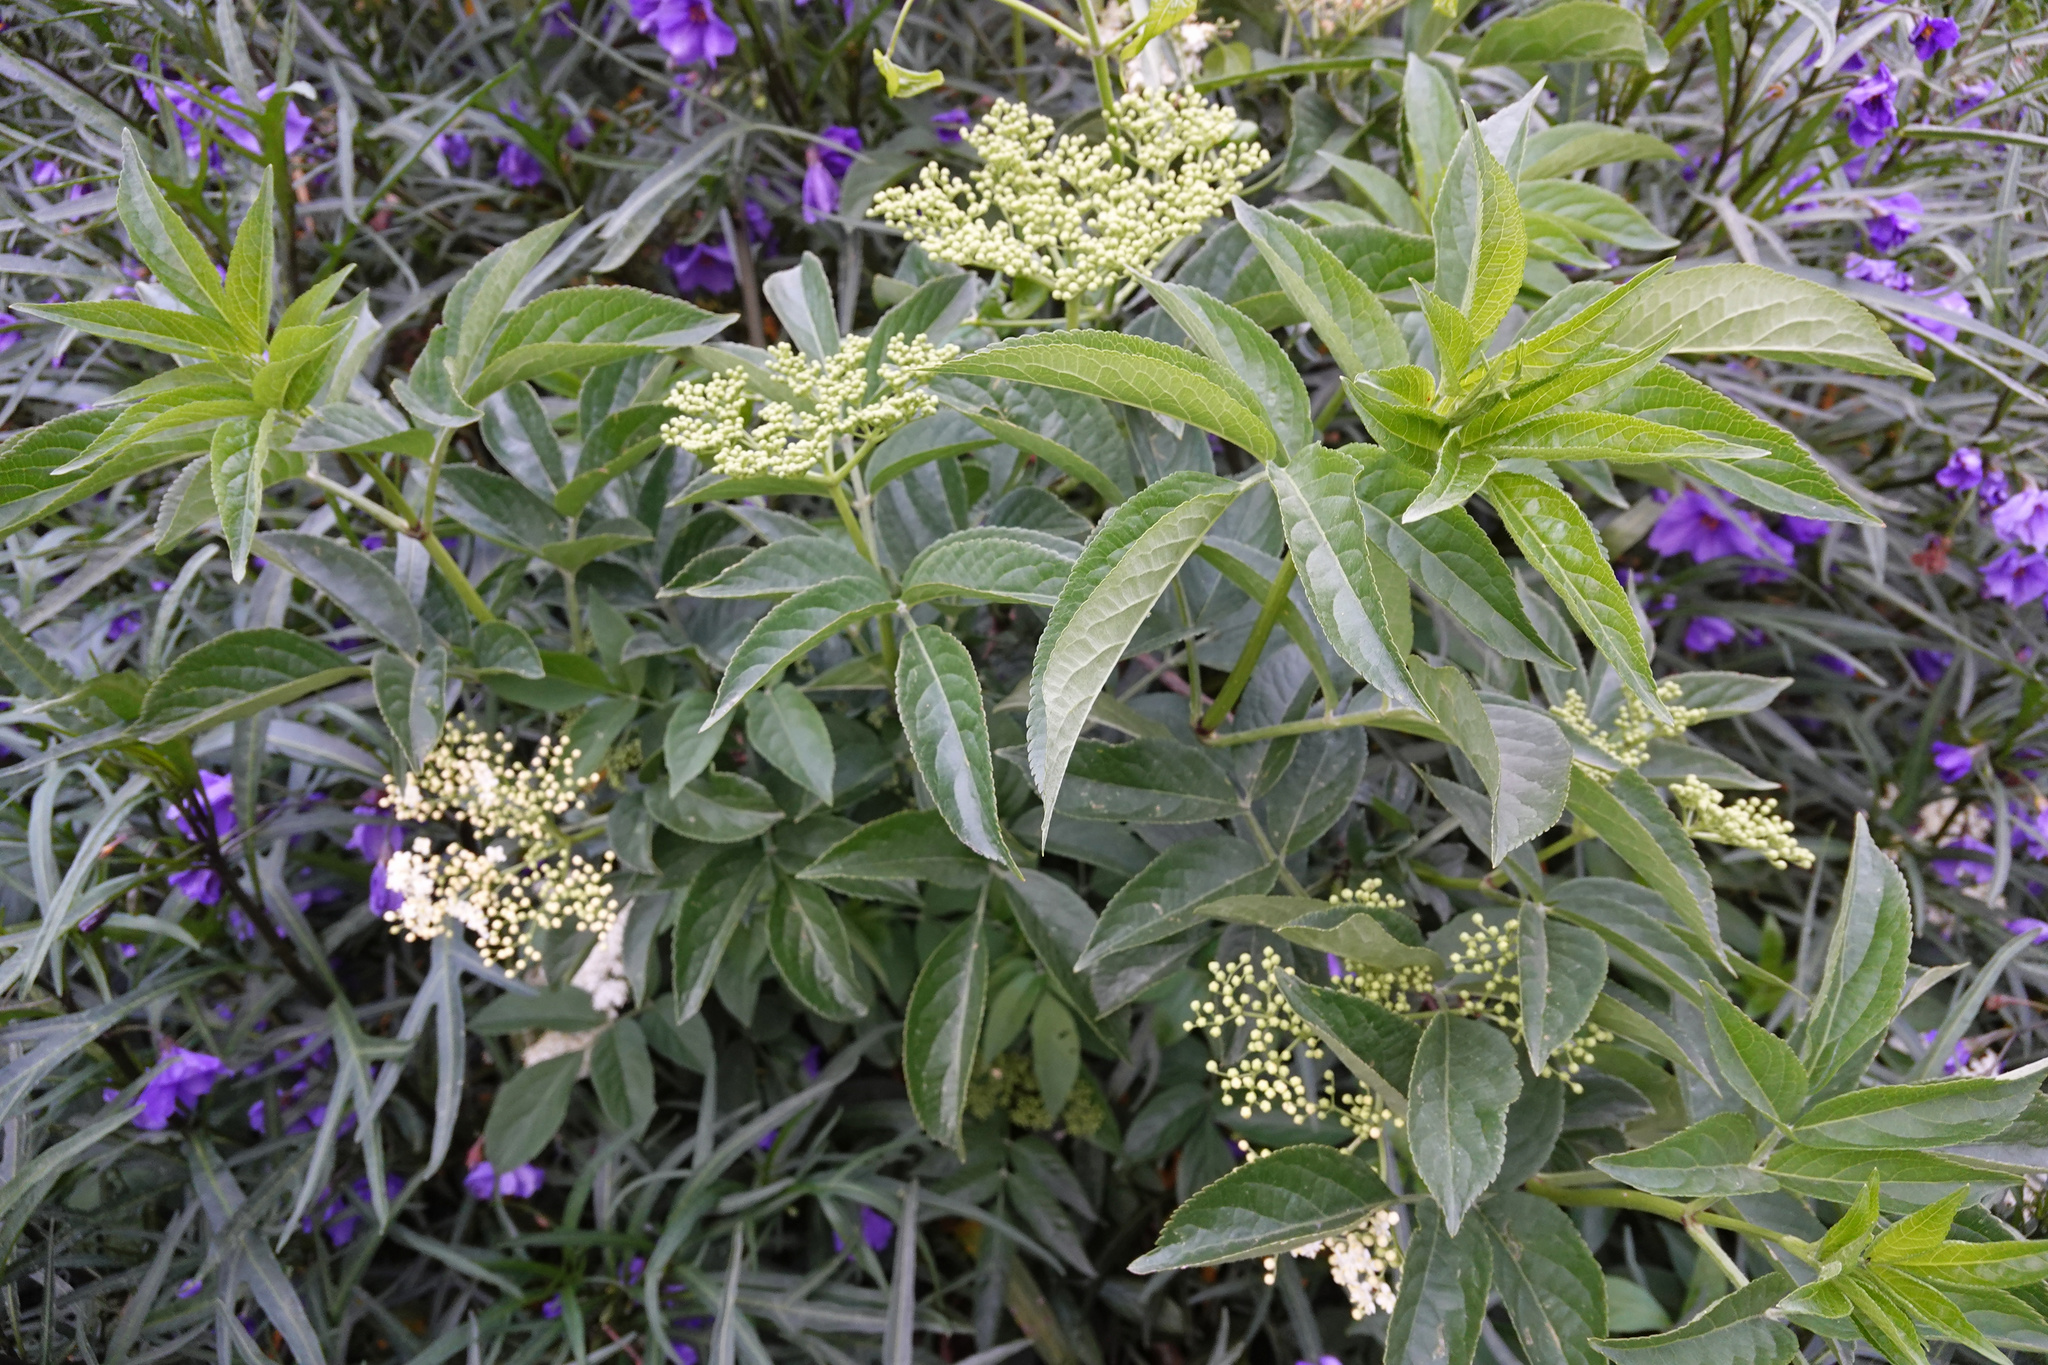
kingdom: Plantae
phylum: Tracheophyta
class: Magnoliopsida
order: Dipsacales
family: Viburnaceae
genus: Sambucus
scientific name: Sambucus nigra
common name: Elder
